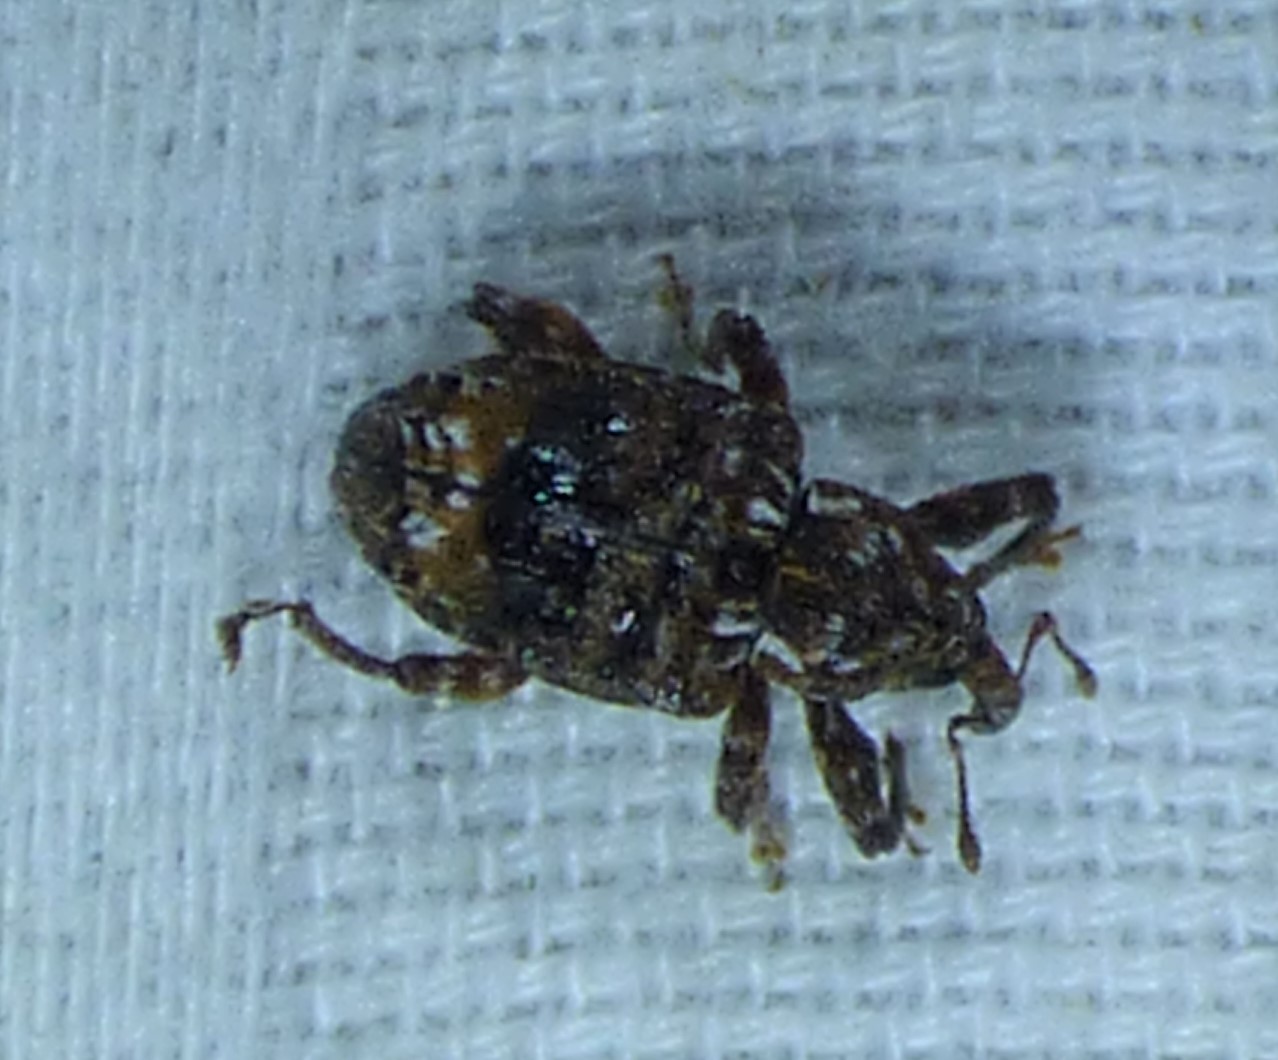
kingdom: Animalia
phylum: Arthropoda
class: Insecta
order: Coleoptera
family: Curculionidae
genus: Conotrachelus
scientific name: Conotrachelus nenuphar
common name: Plum curculio
